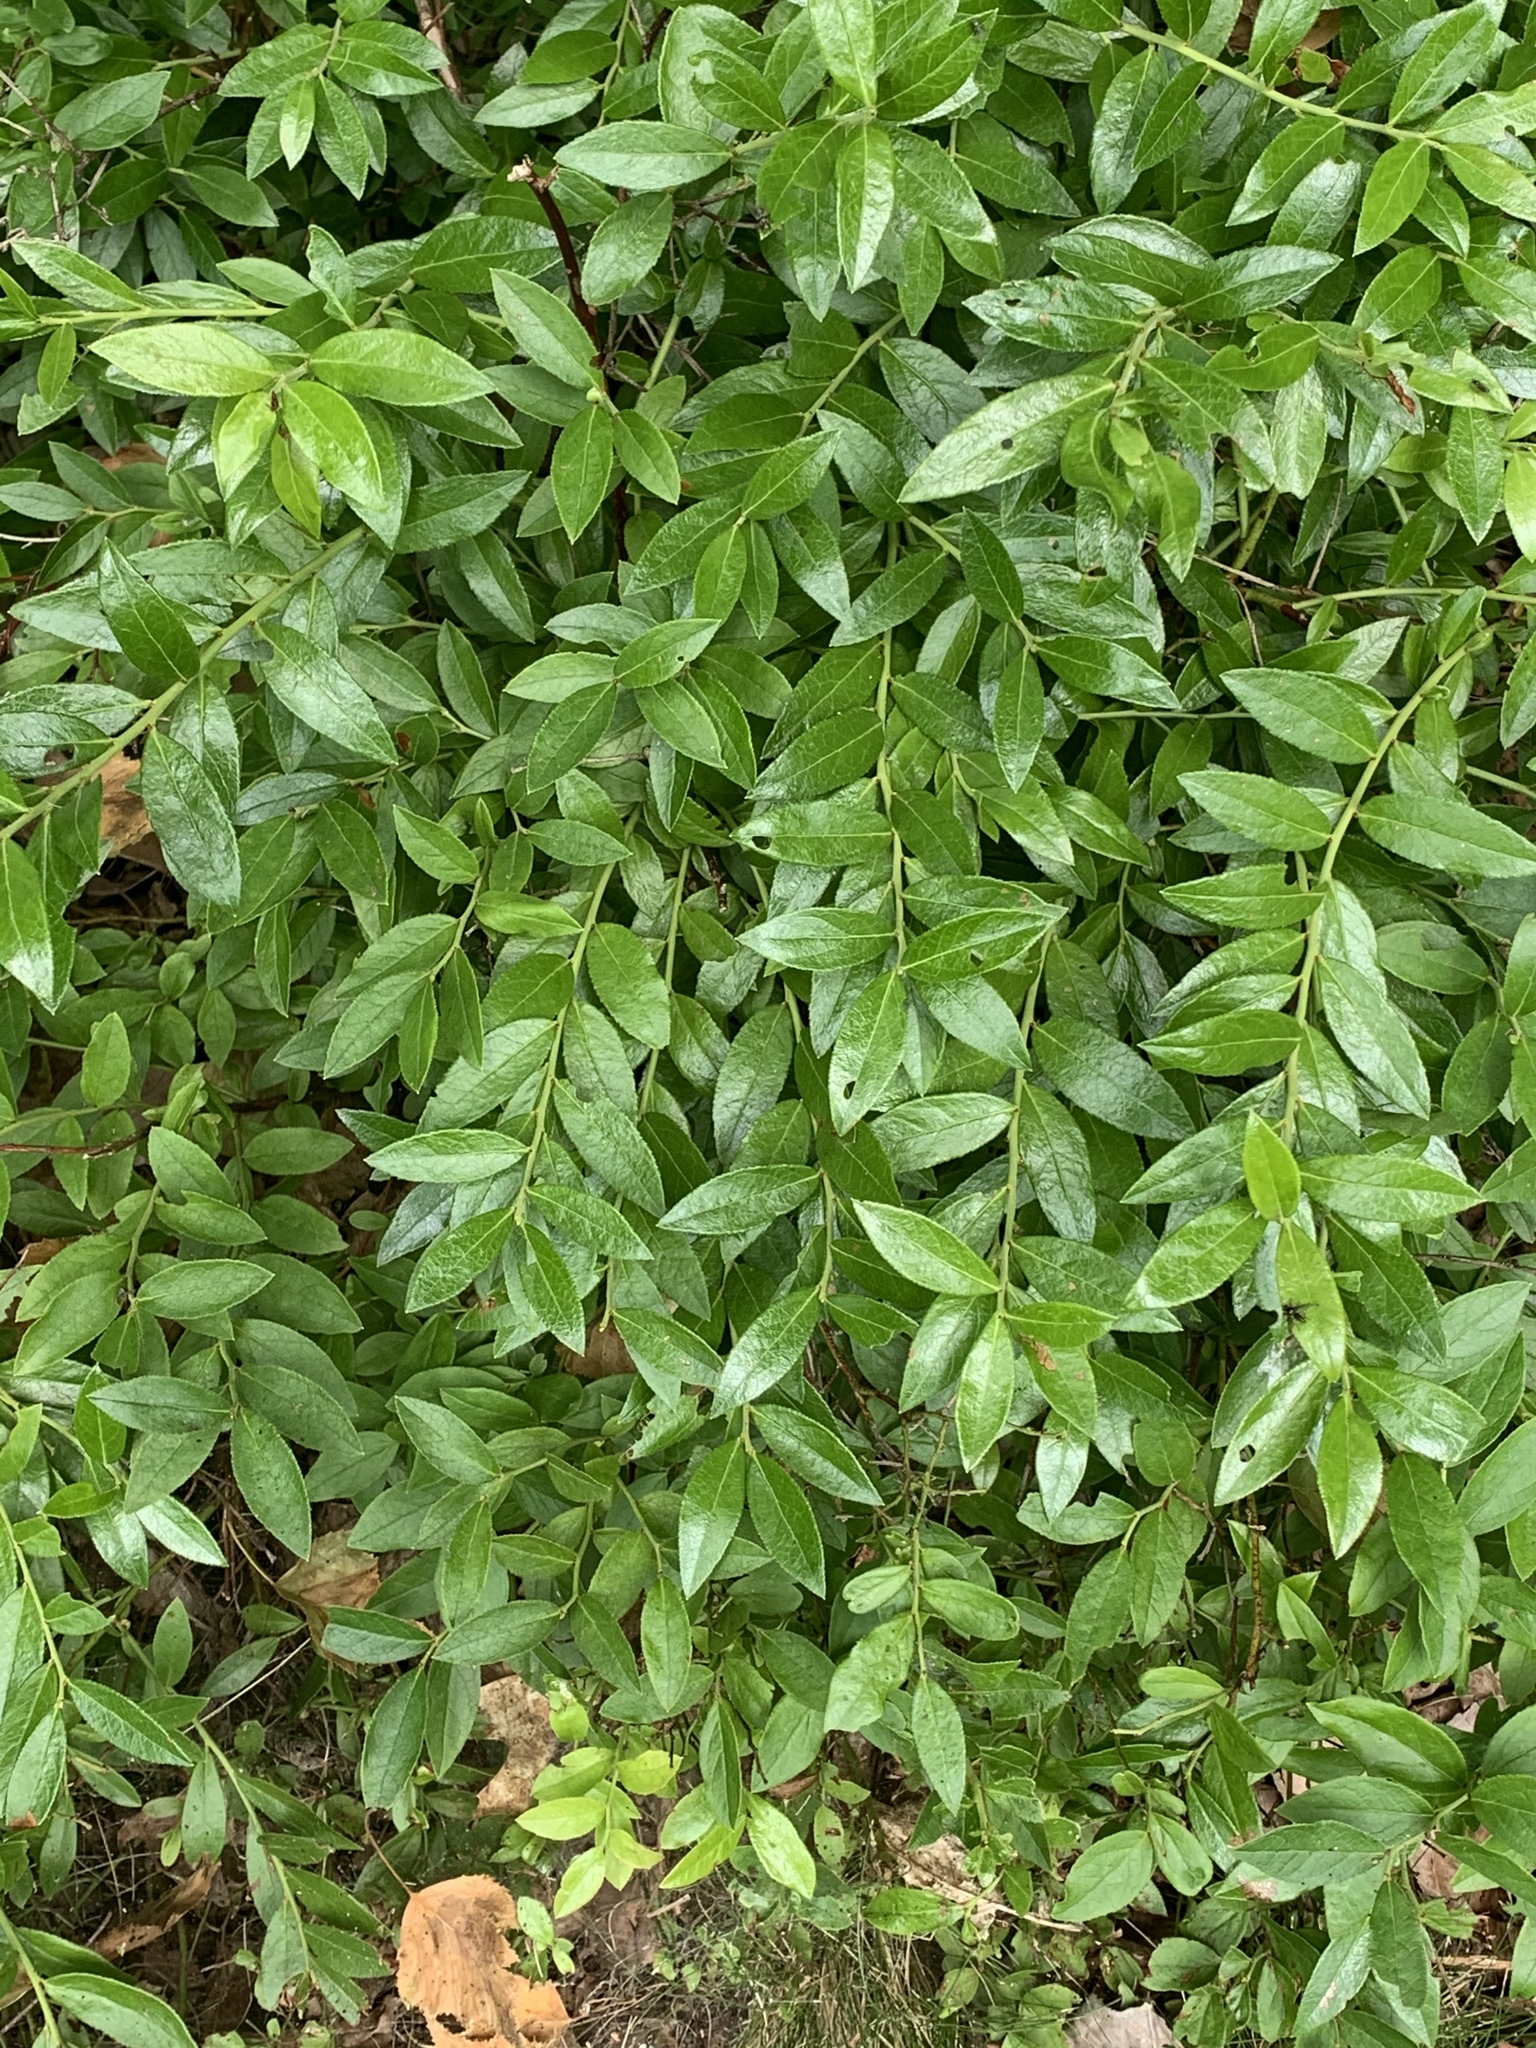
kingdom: Plantae
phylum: Tracheophyta
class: Magnoliopsida
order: Ericales
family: Ericaceae
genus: Vaccinium
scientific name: Vaccinium angustifolium
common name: Early lowbush blueberry
